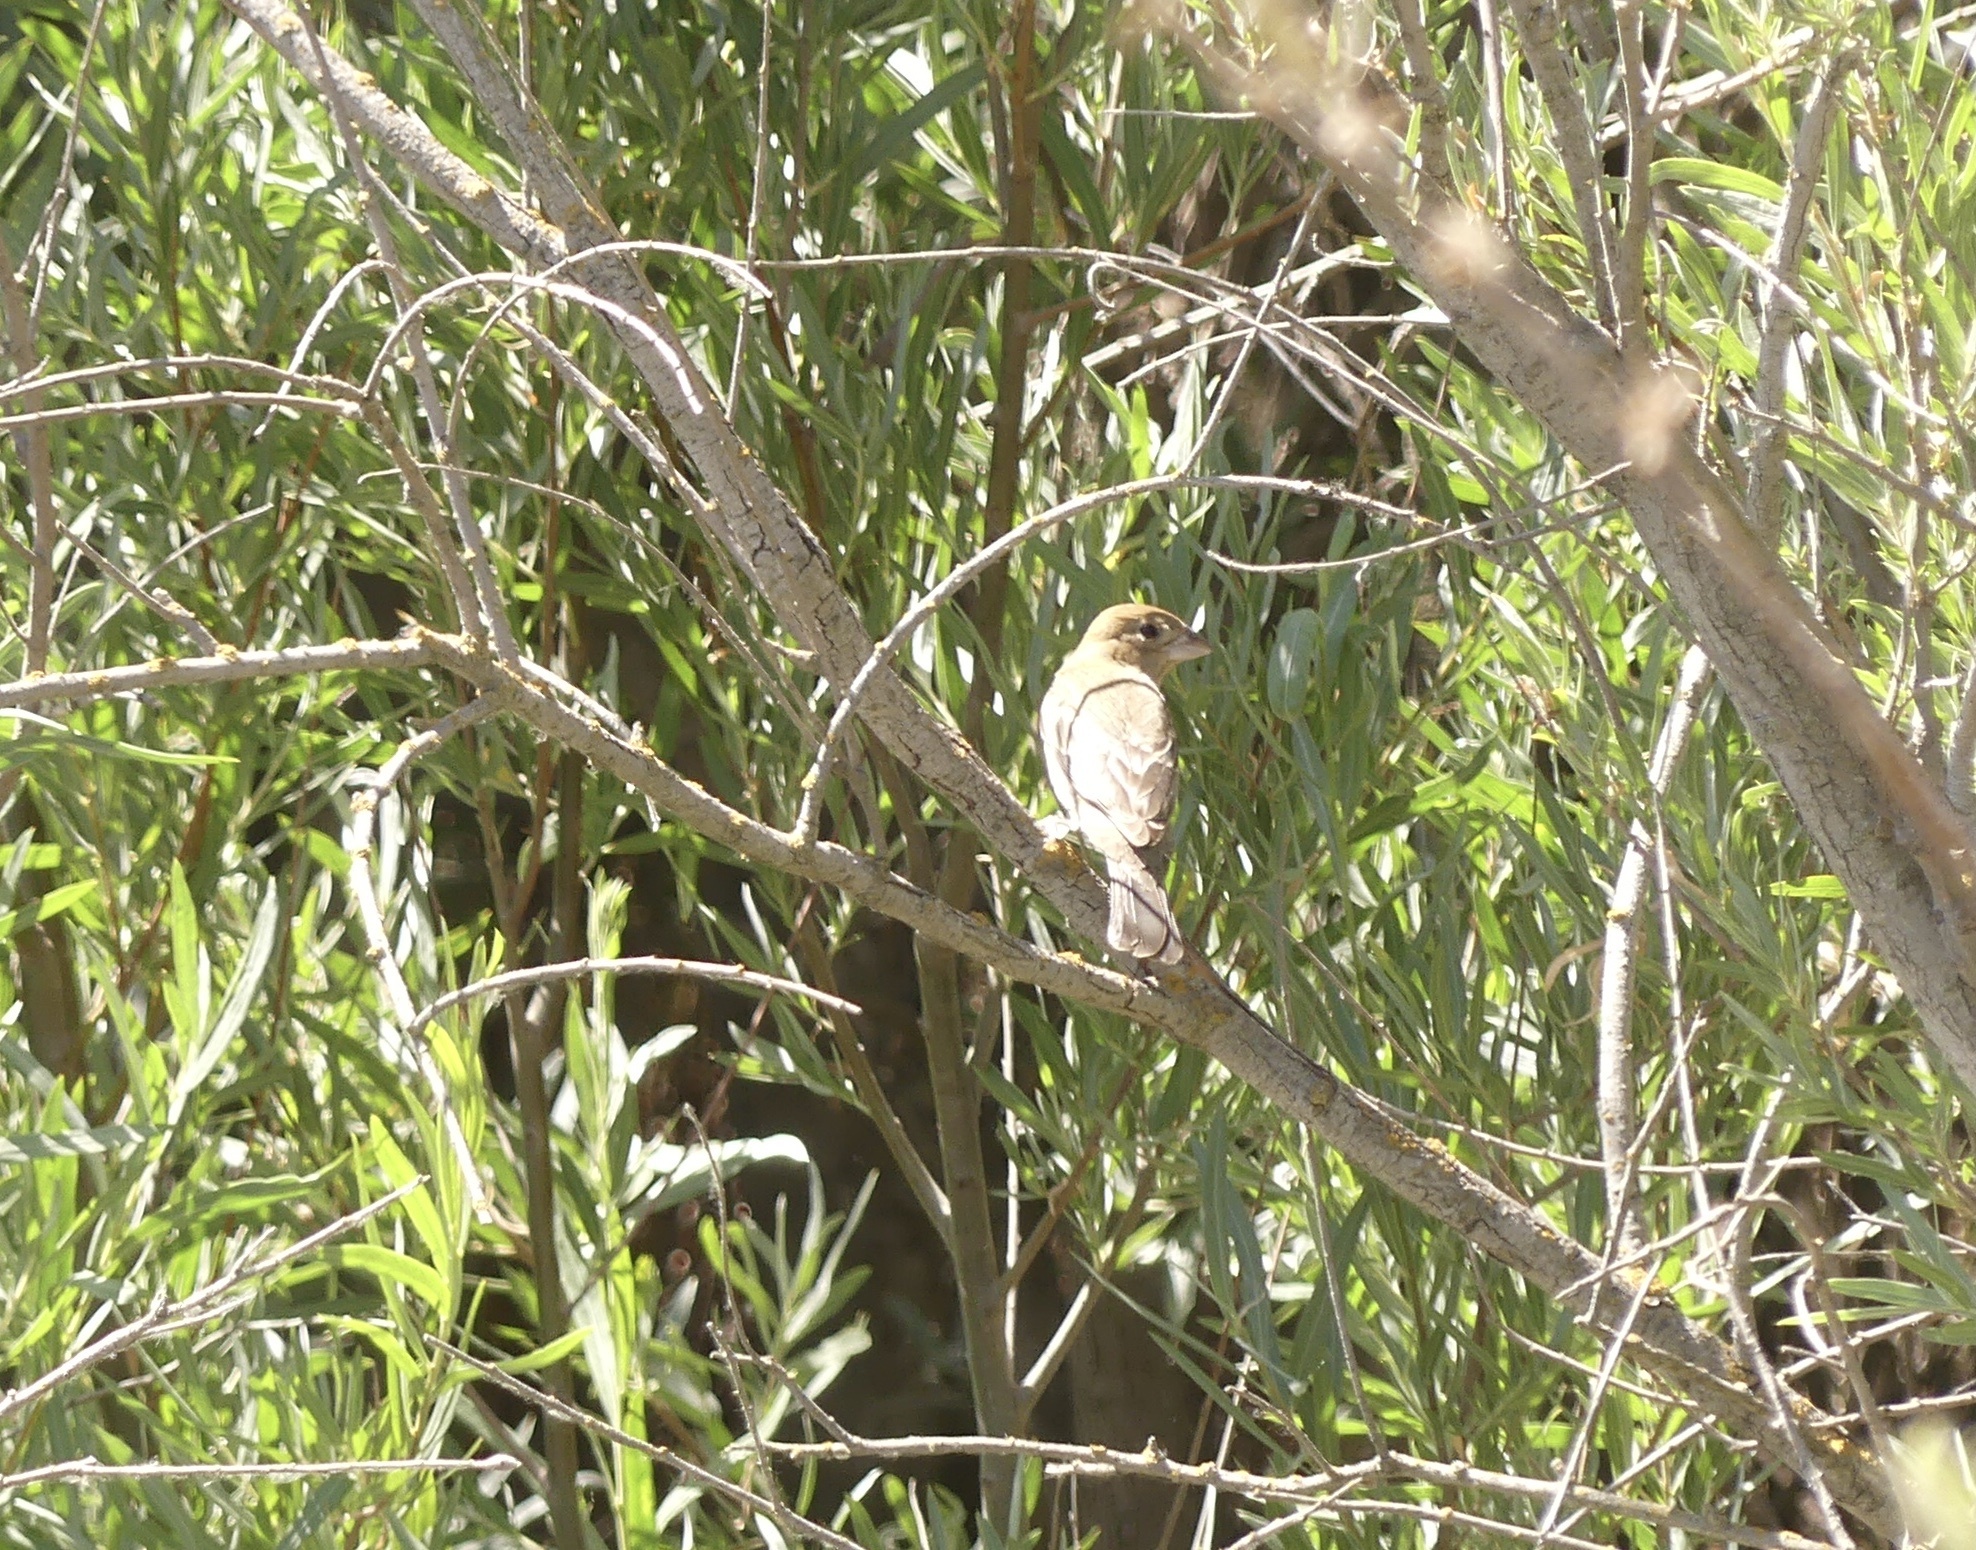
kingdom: Animalia
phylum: Chordata
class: Aves
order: Passeriformes
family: Cardinalidae
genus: Passerina
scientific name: Passerina caerulea
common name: Blue grosbeak
